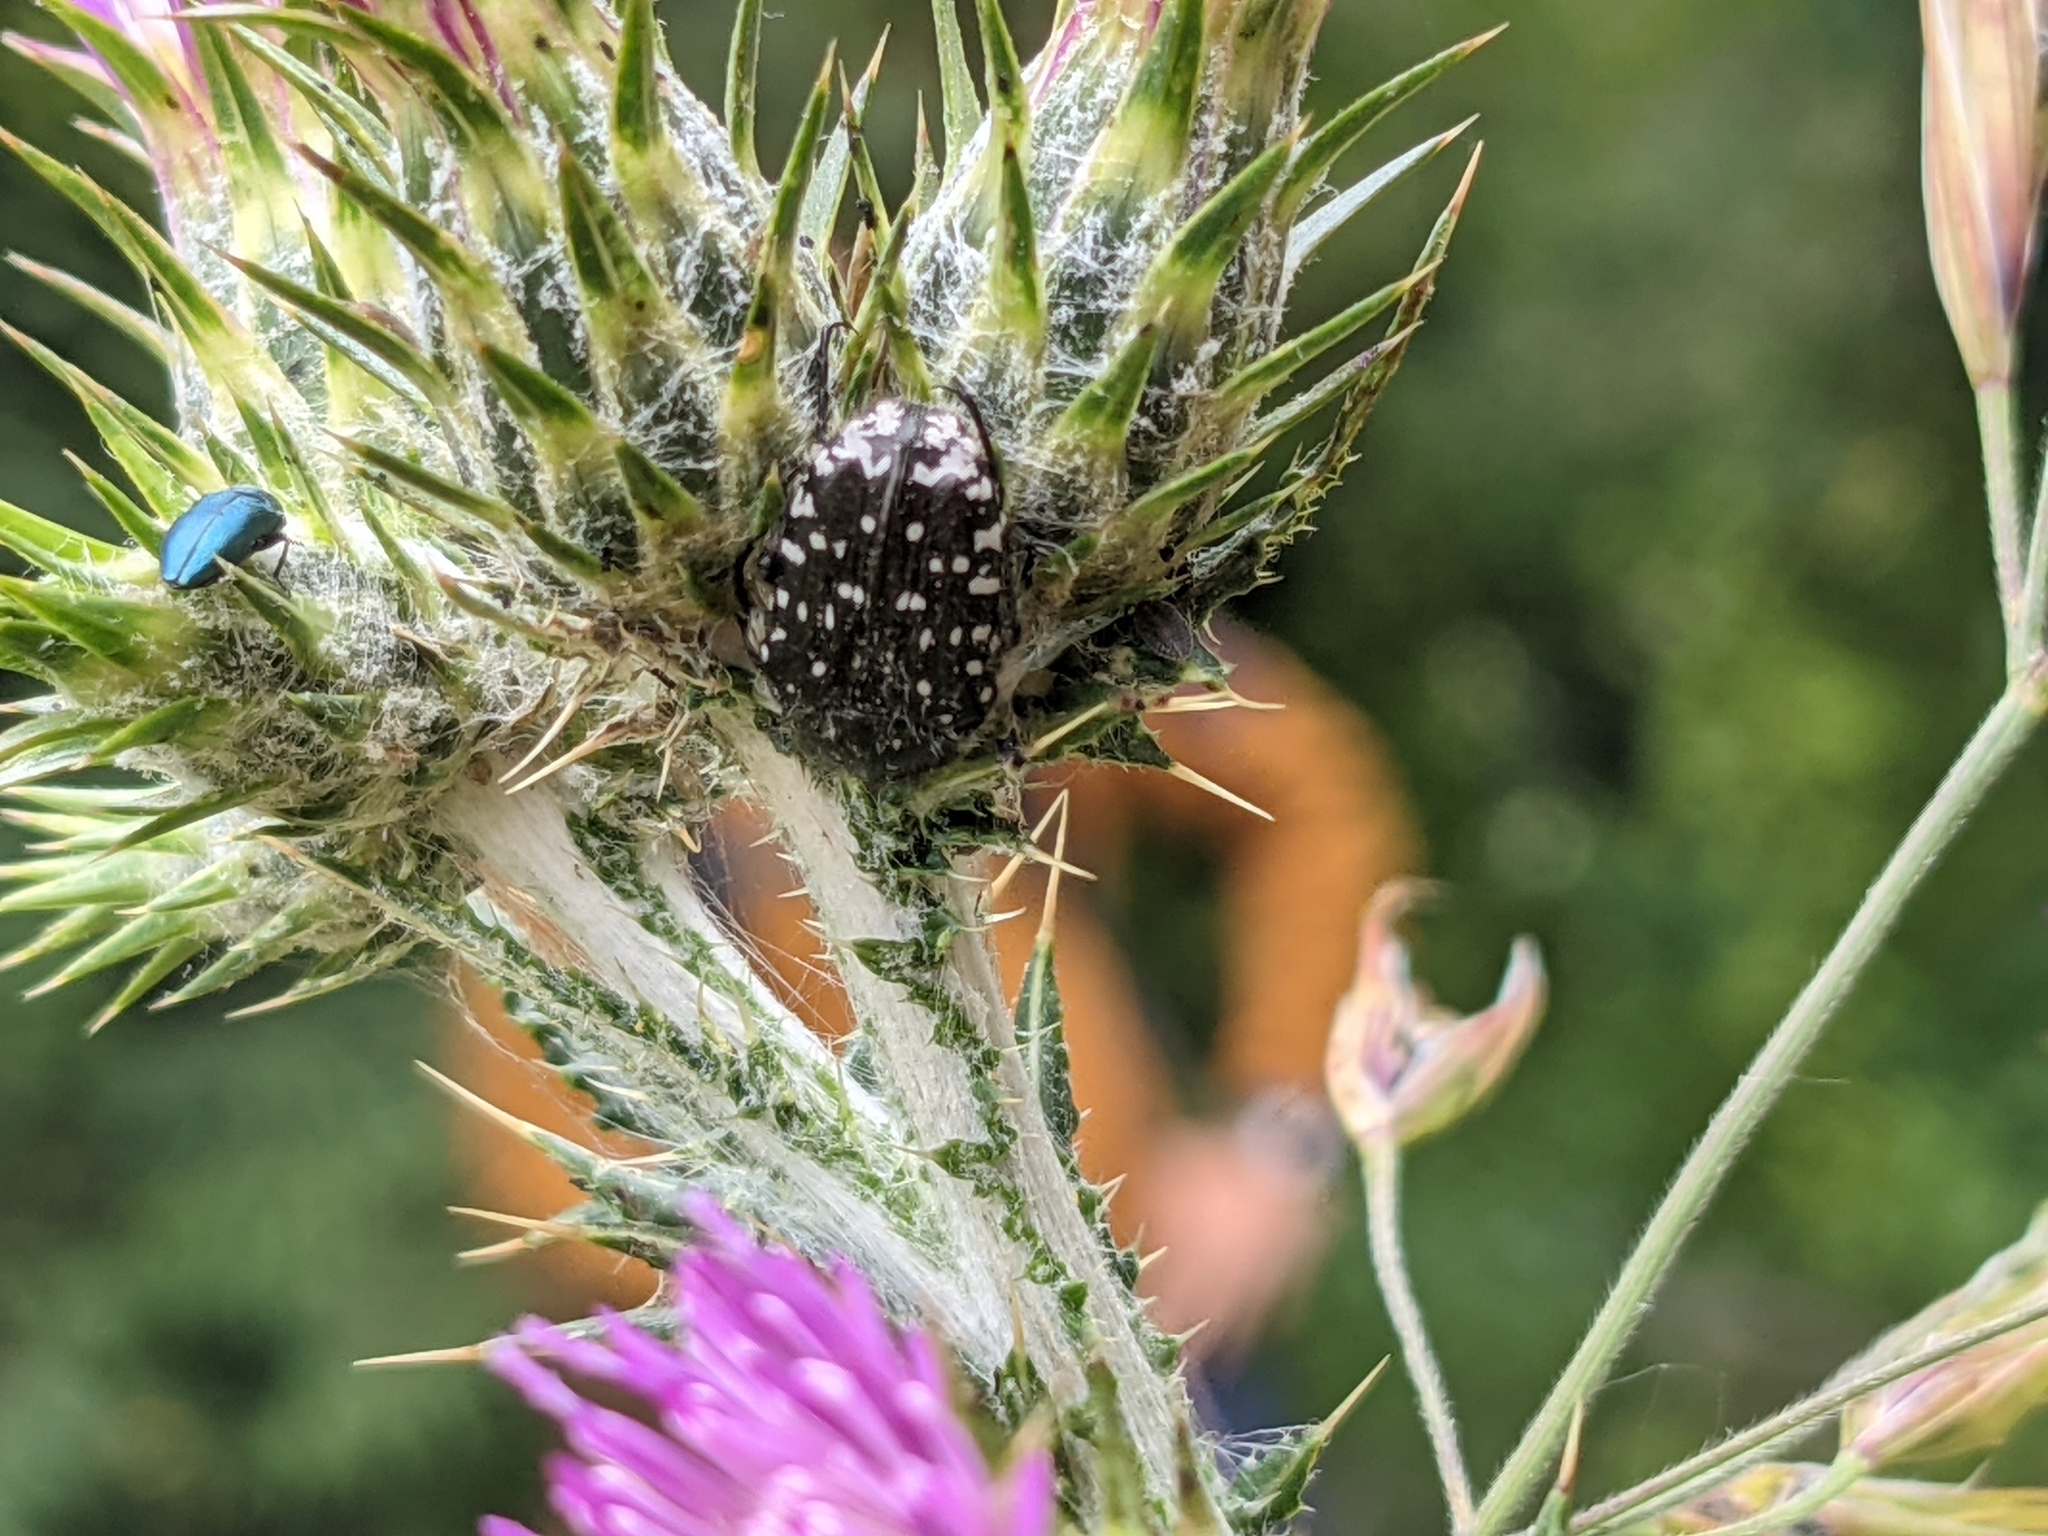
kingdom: Animalia
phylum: Arthropoda
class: Insecta
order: Coleoptera
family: Scarabaeidae
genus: Oxythyrea
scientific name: Oxythyrea funesta
